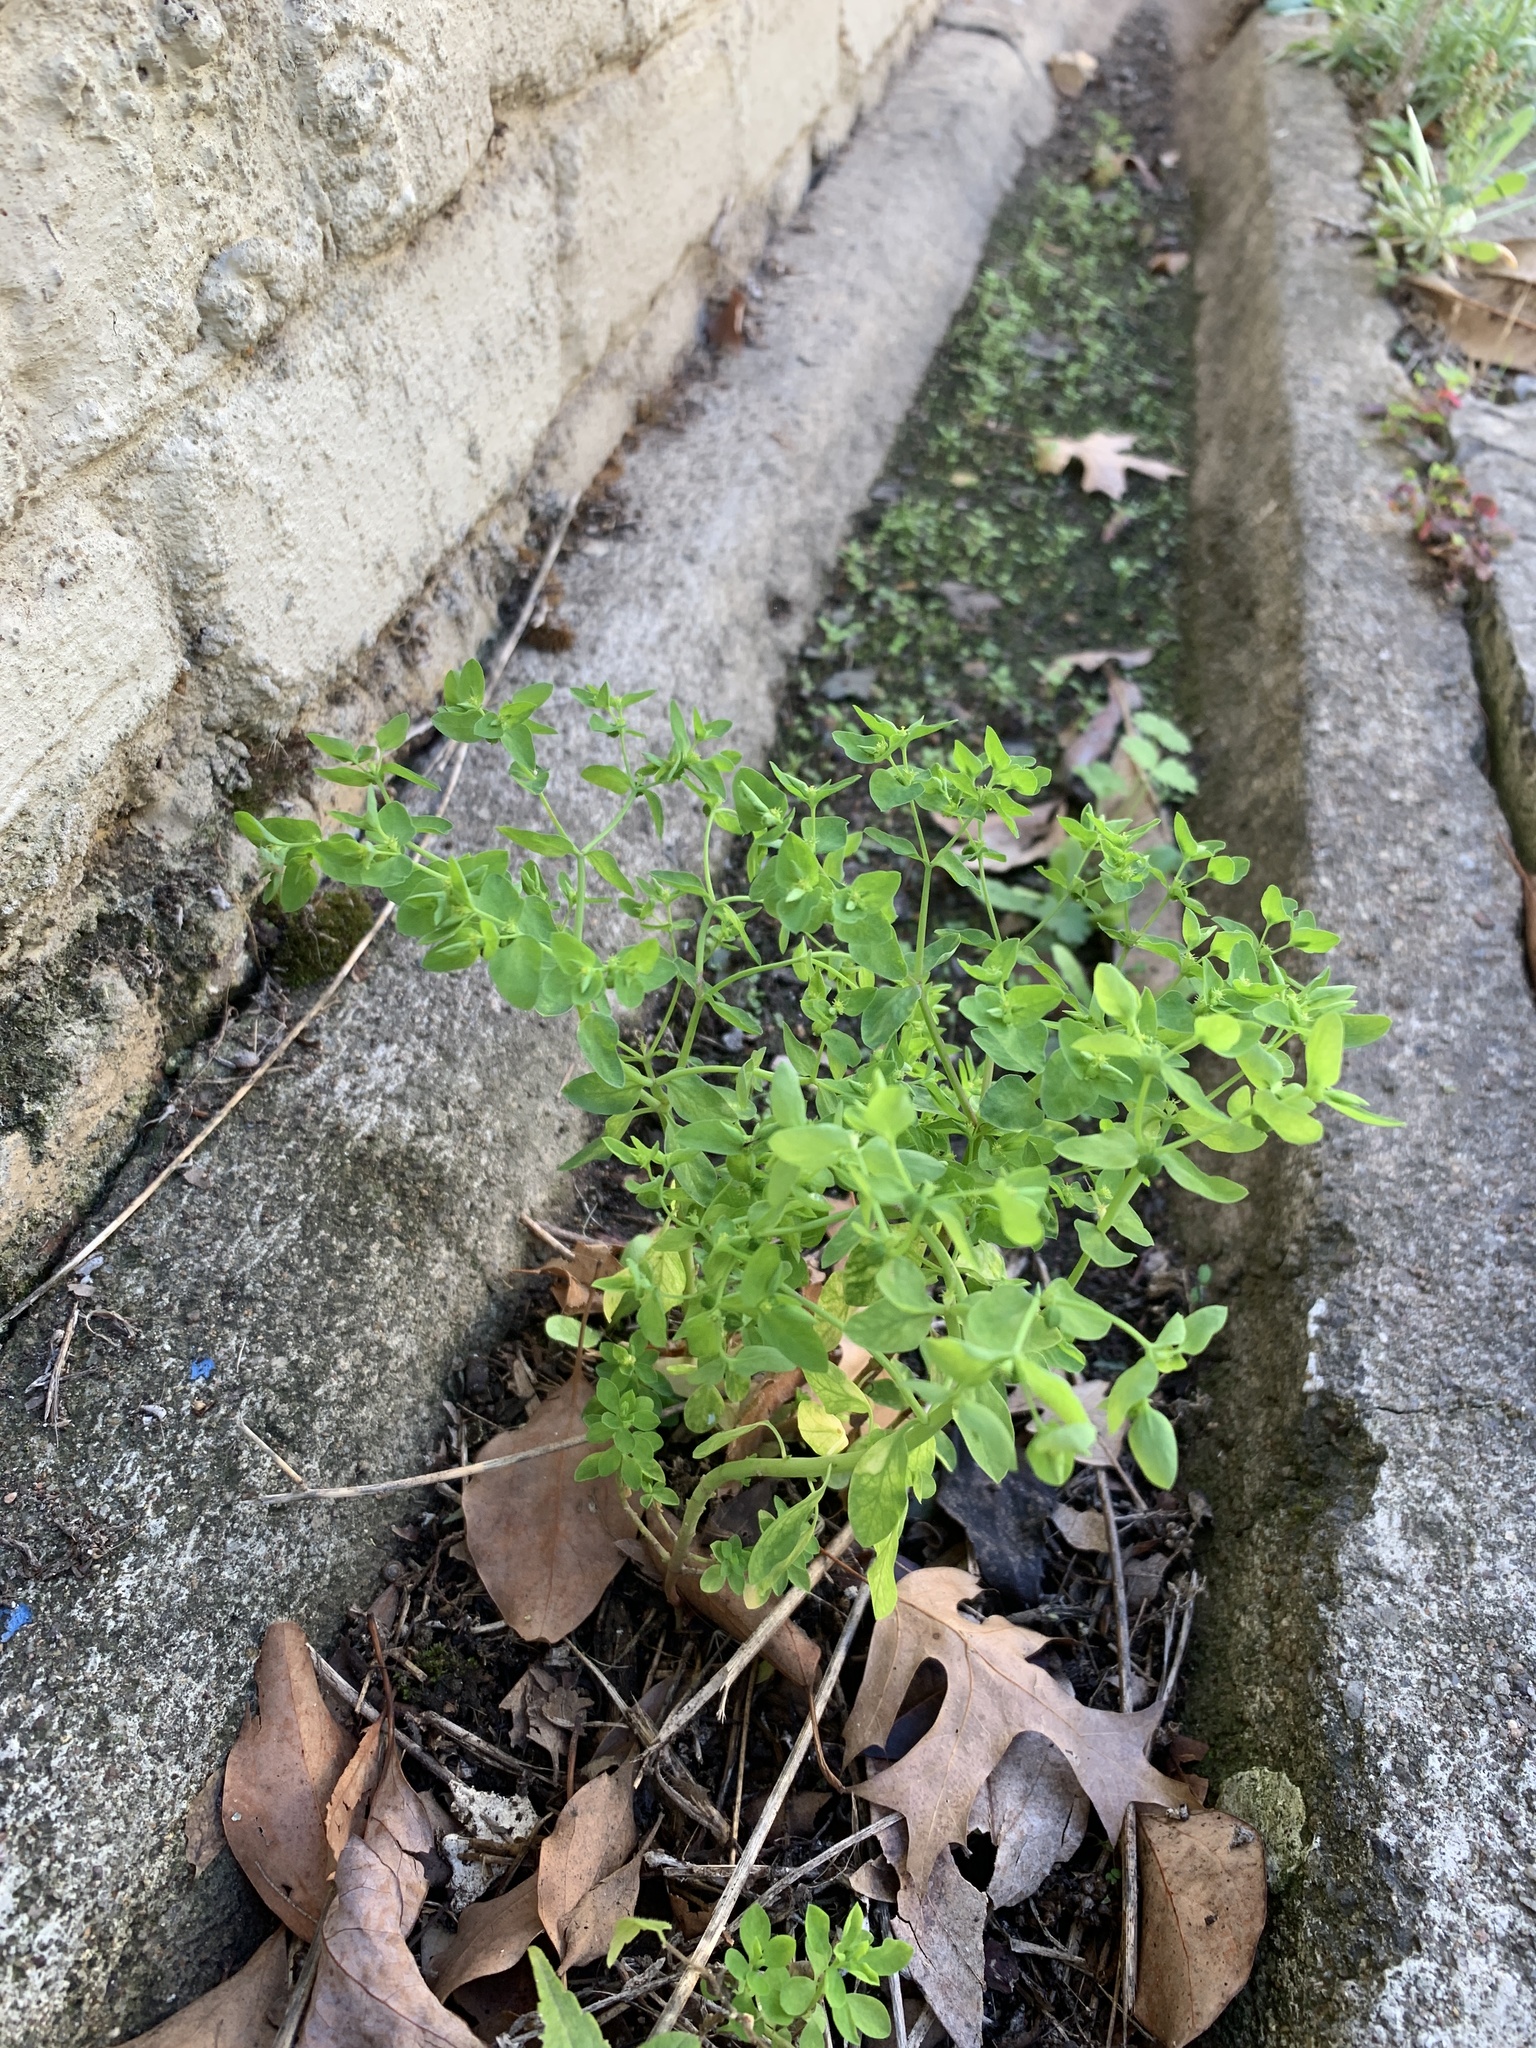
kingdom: Plantae
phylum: Tracheophyta
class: Magnoliopsida
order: Malpighiales
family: Euphorbiaceae
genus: Euphorbia
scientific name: Euphorbia peplus
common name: Petty spurge
